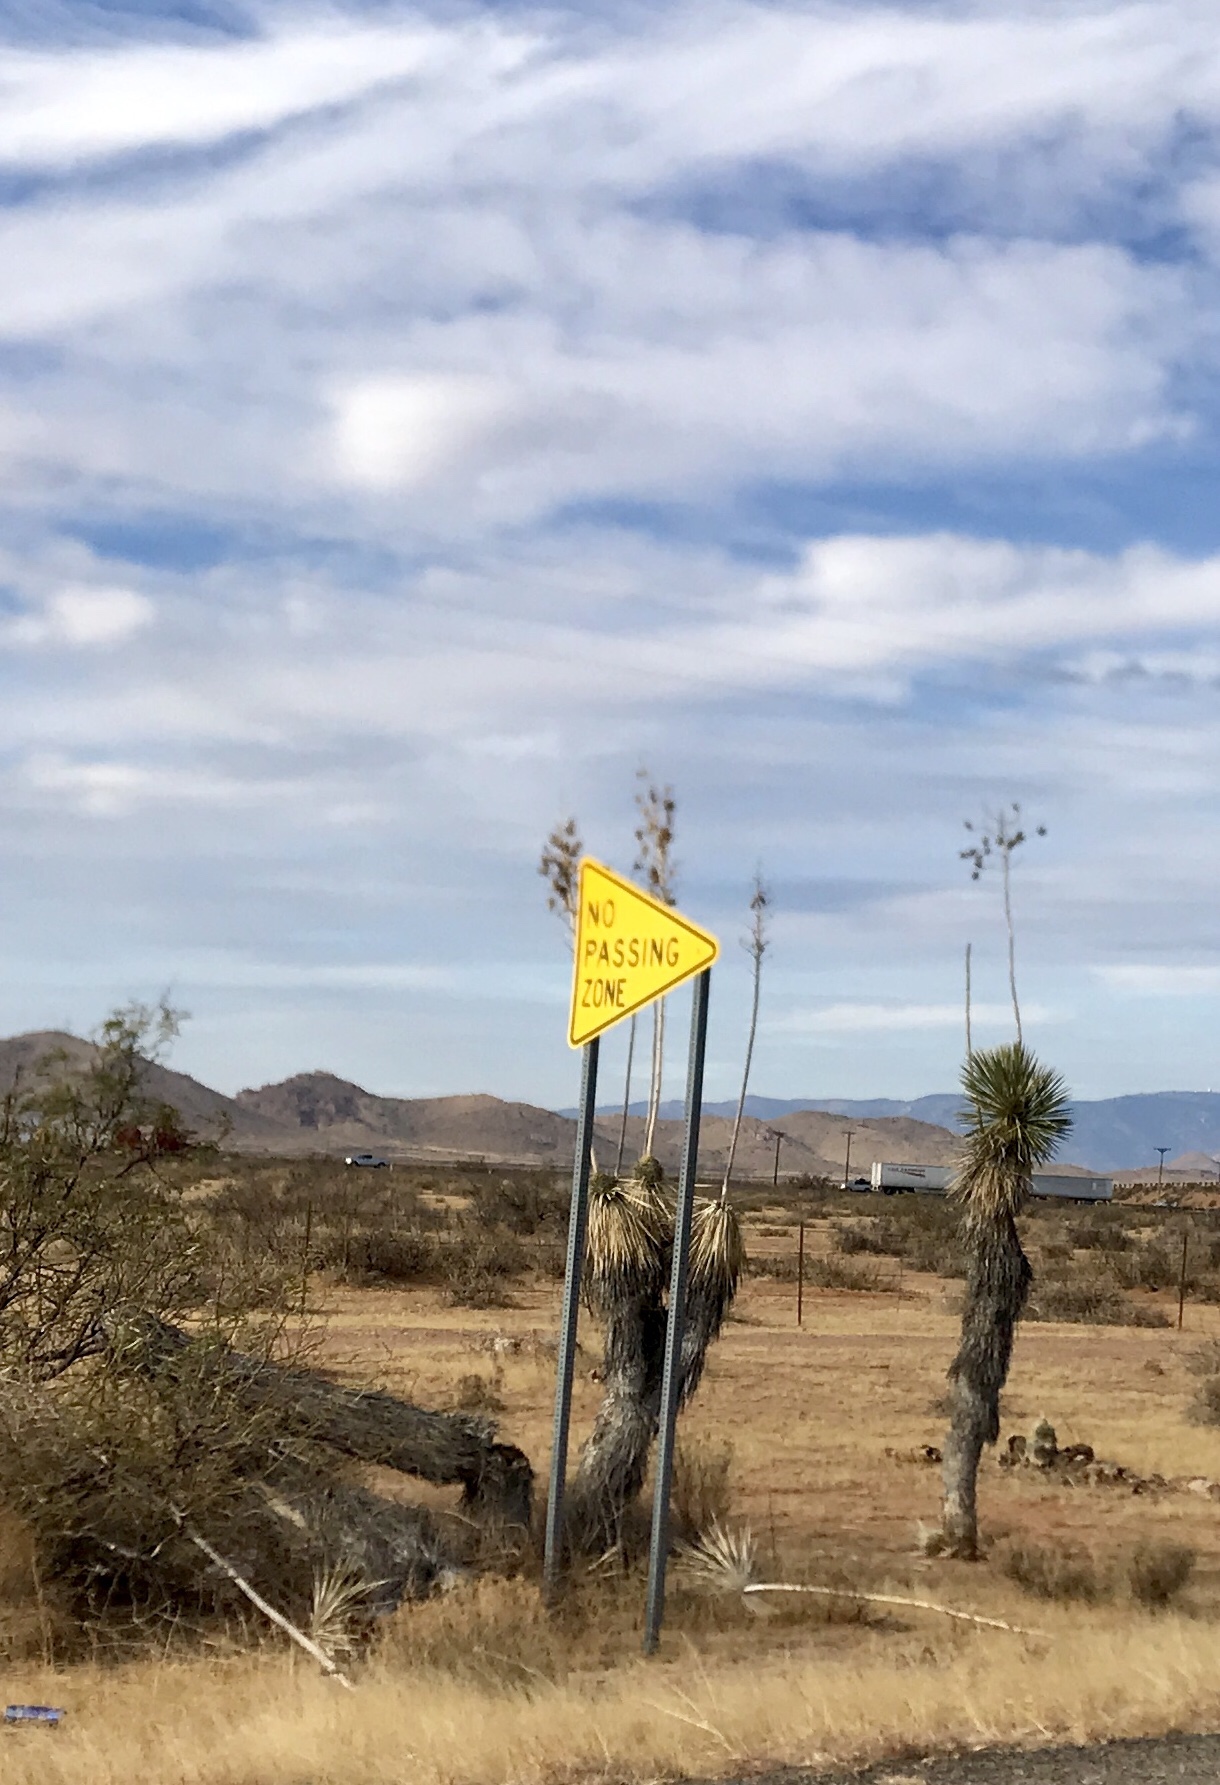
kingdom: Plantae
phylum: Tracheophyta
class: Liliopsida
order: Asparagales
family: Asparagaceae
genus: Yucca
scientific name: Yucca elata
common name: Palmella
